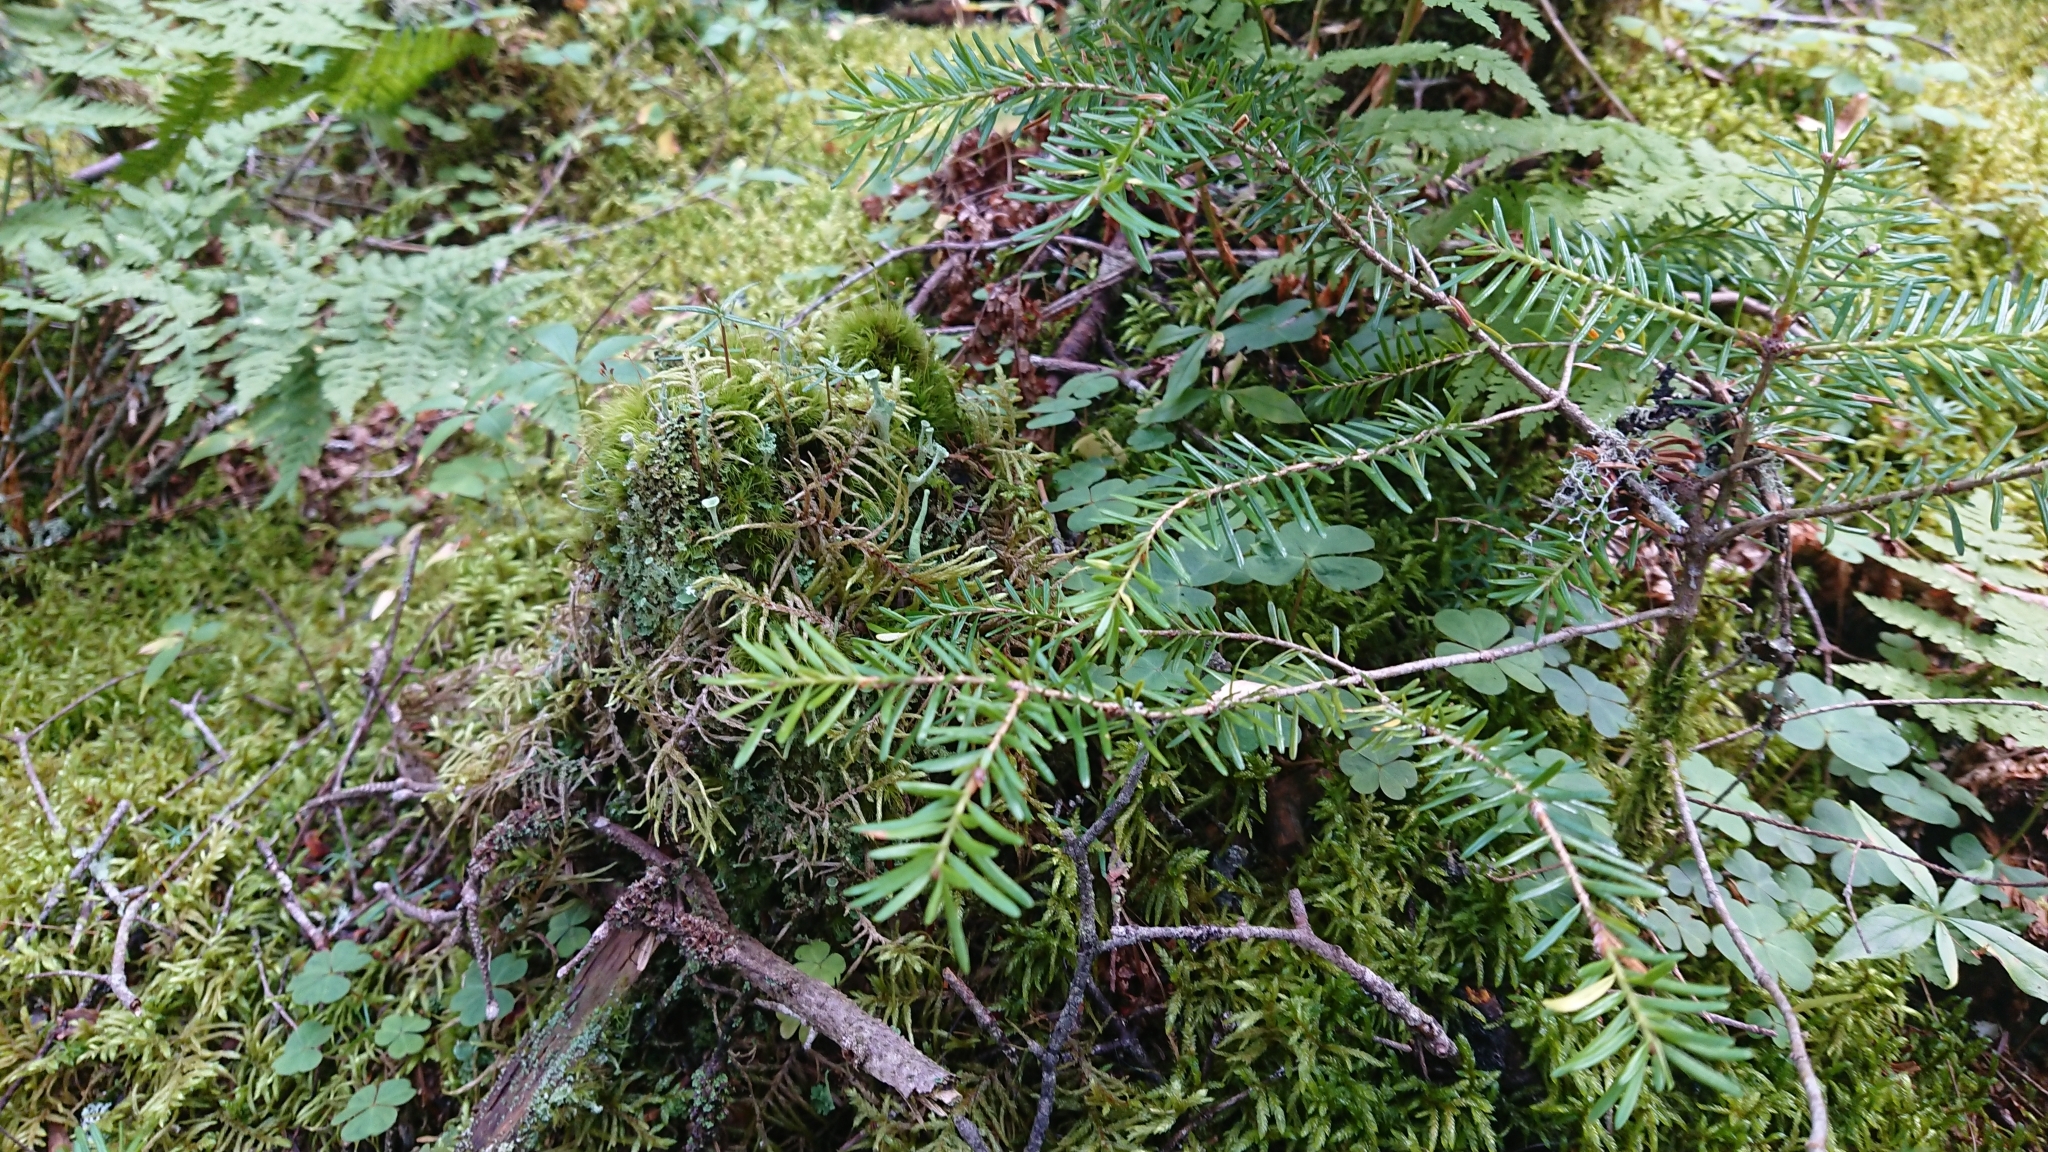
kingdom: Plantae
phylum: Tracheophyta
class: Pinopsida
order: Pinales
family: Pinaceae
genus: Tsuga
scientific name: Tsuga canadensis
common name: Eastern hemlock
